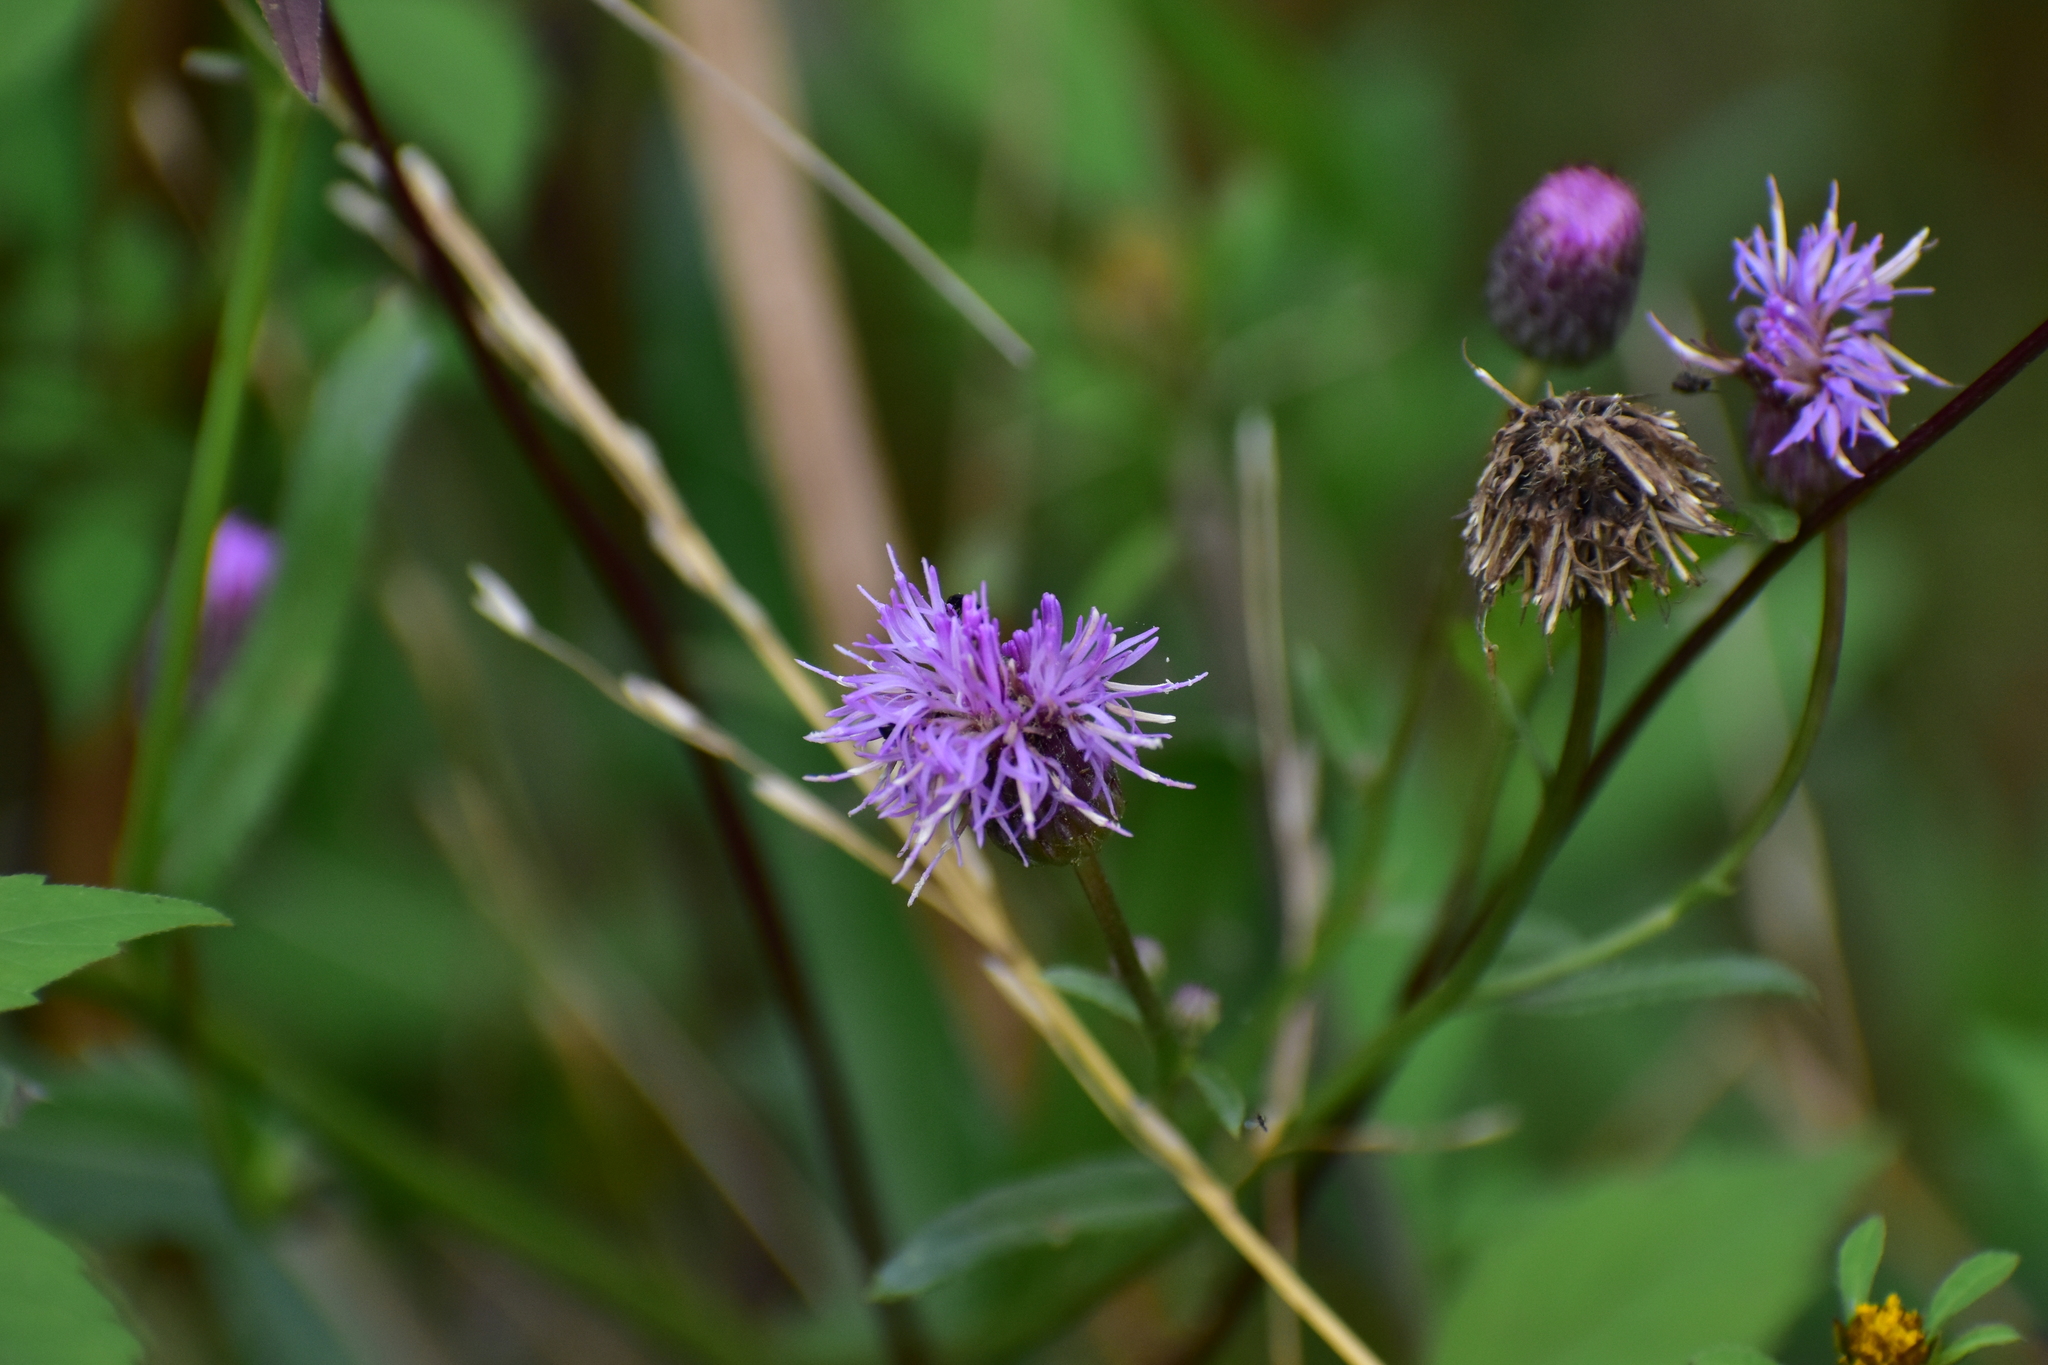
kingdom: Plantae
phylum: Tracheophyta
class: Magnoliopsida
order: Asterales
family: Asteraceae
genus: Cirsium
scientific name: Cirsium arvense
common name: Creeping thistle
